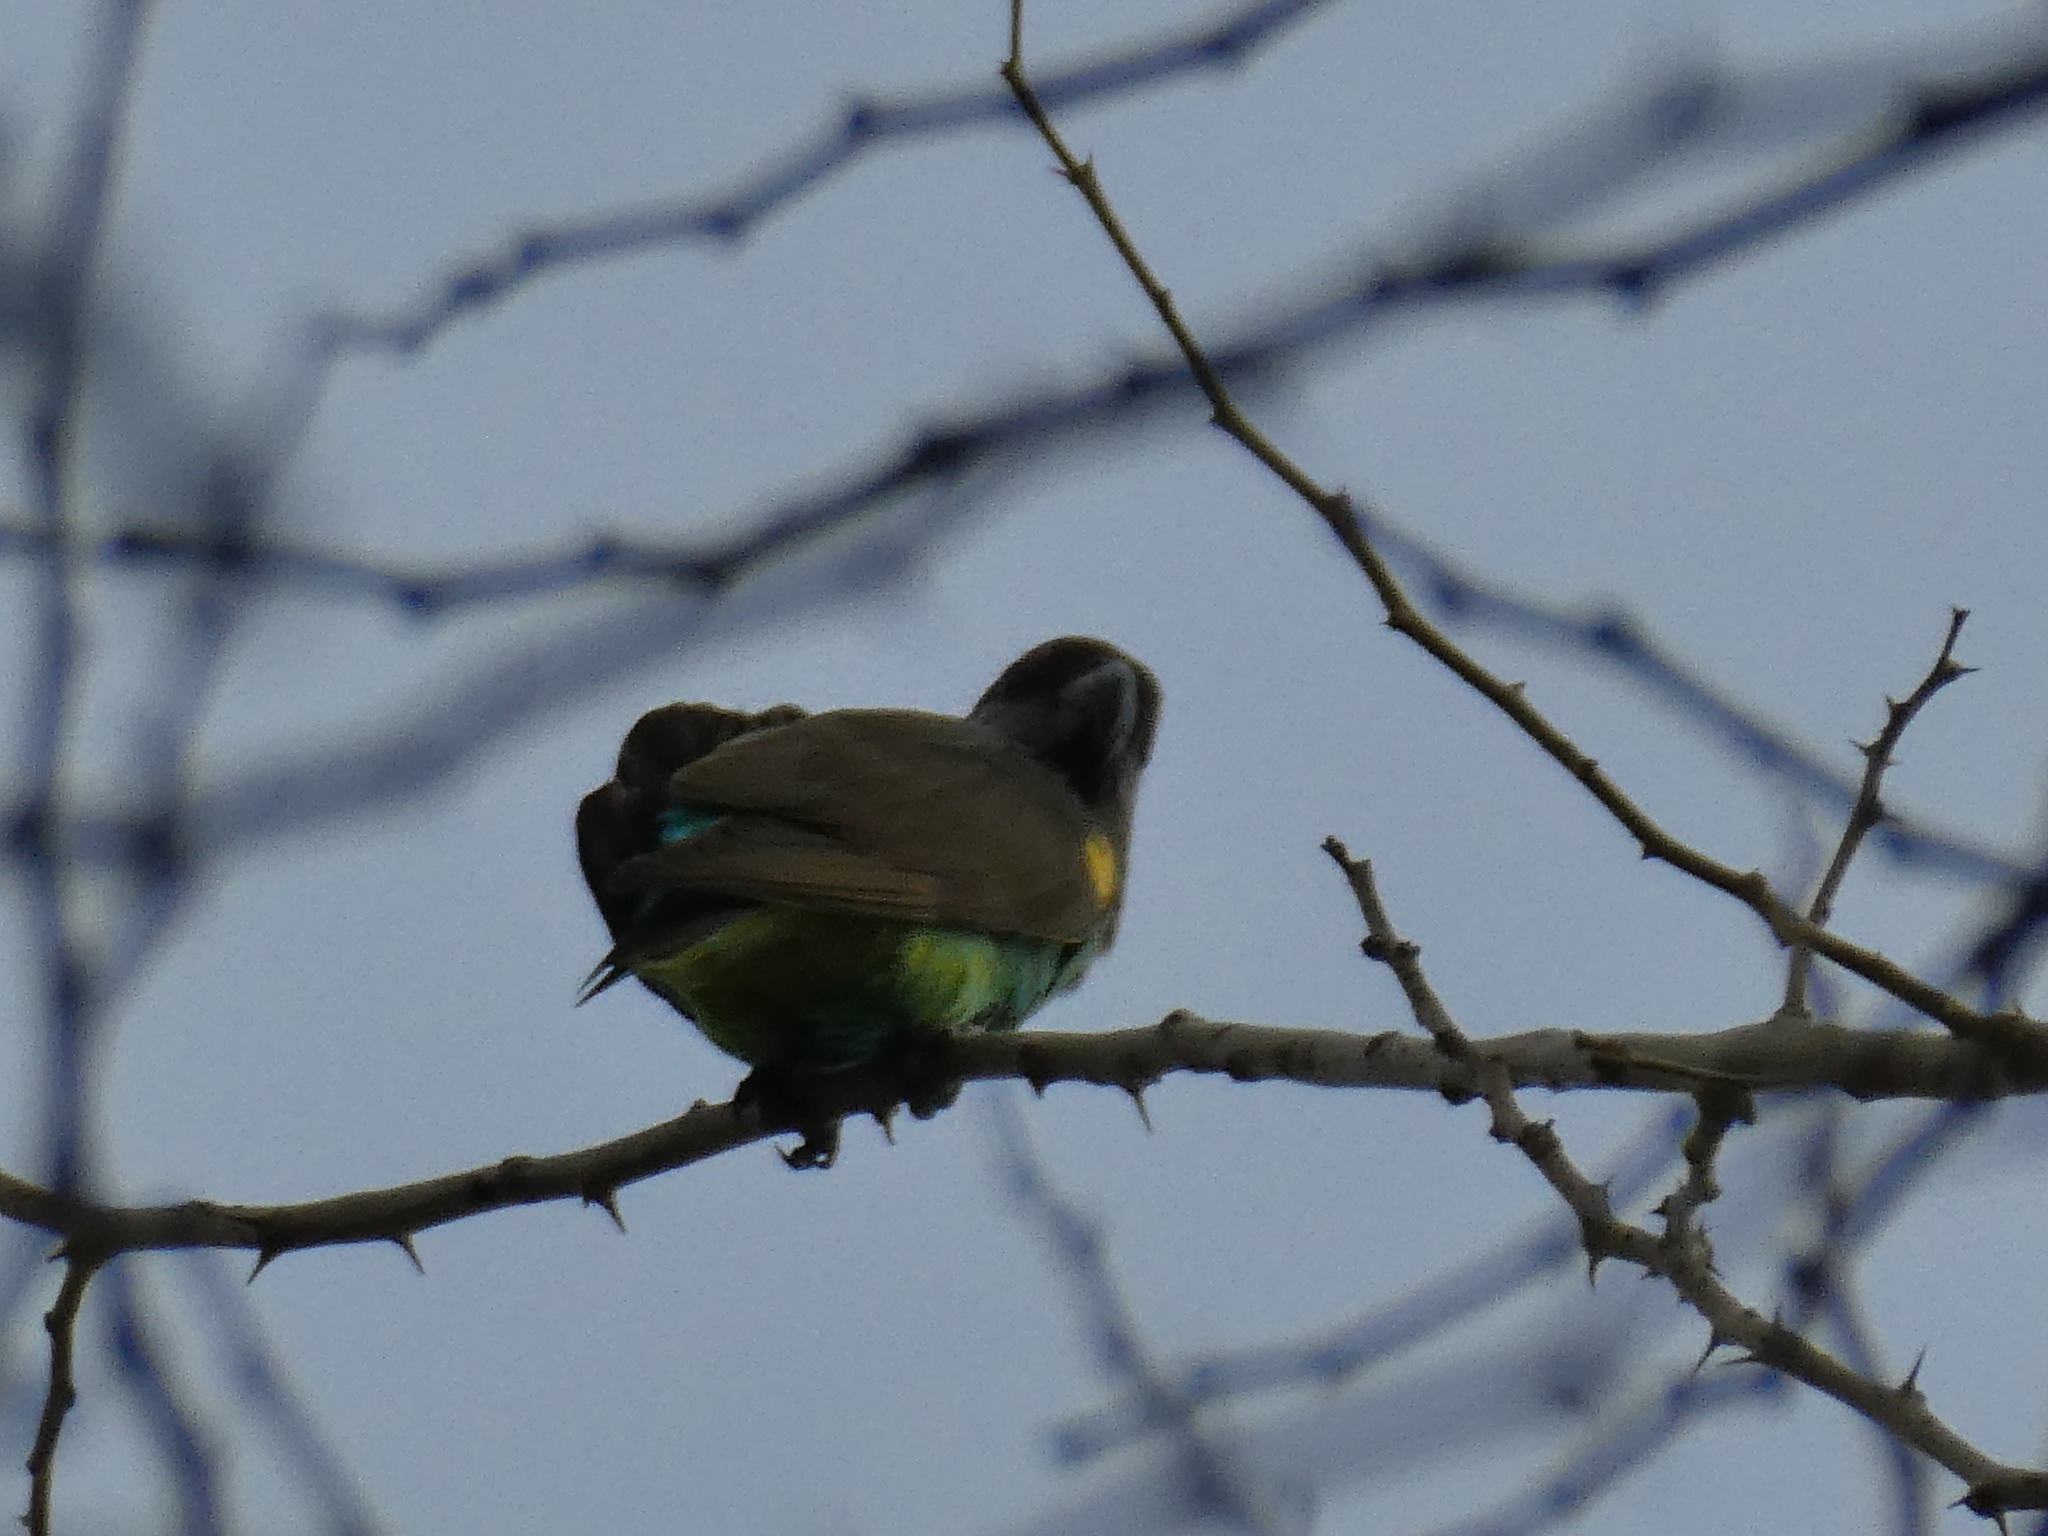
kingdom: Animalia
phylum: Chordata
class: Aves
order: Psittaciformes
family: Psittacidae
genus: Poicephalus
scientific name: Poicephalus meyeri
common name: Meyer's parrot
